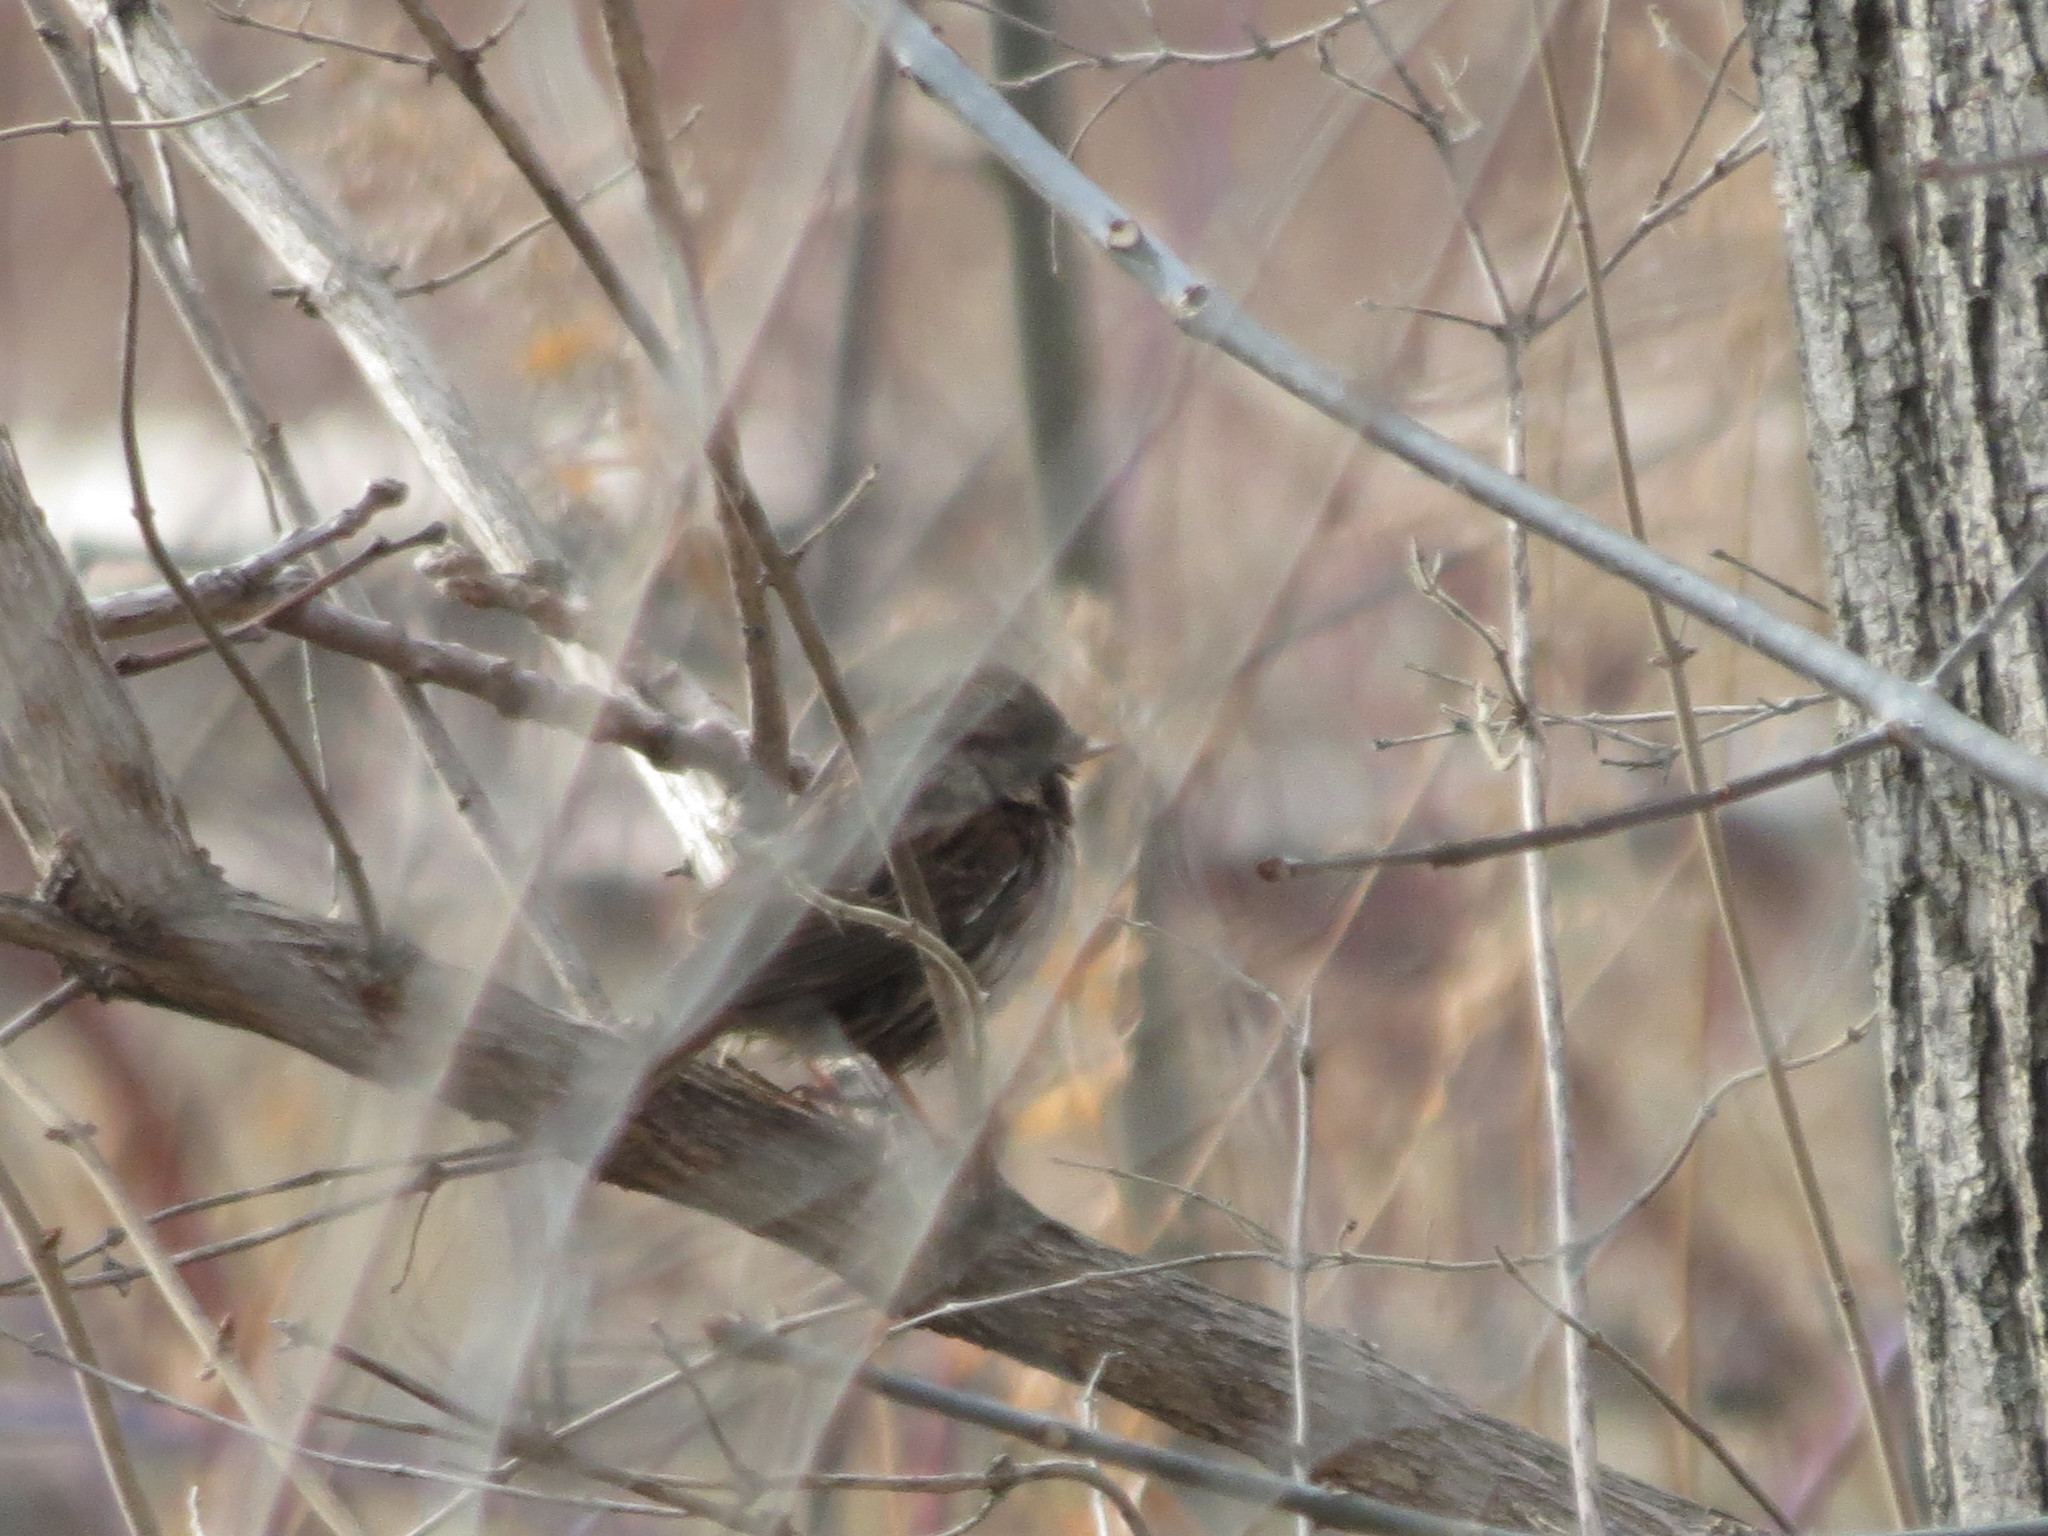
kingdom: Animalia
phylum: Chordata
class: Aves
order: Passeriformes
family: Passerellidae
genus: Melospiza
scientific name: Melospiza melodia
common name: Song sparrow
